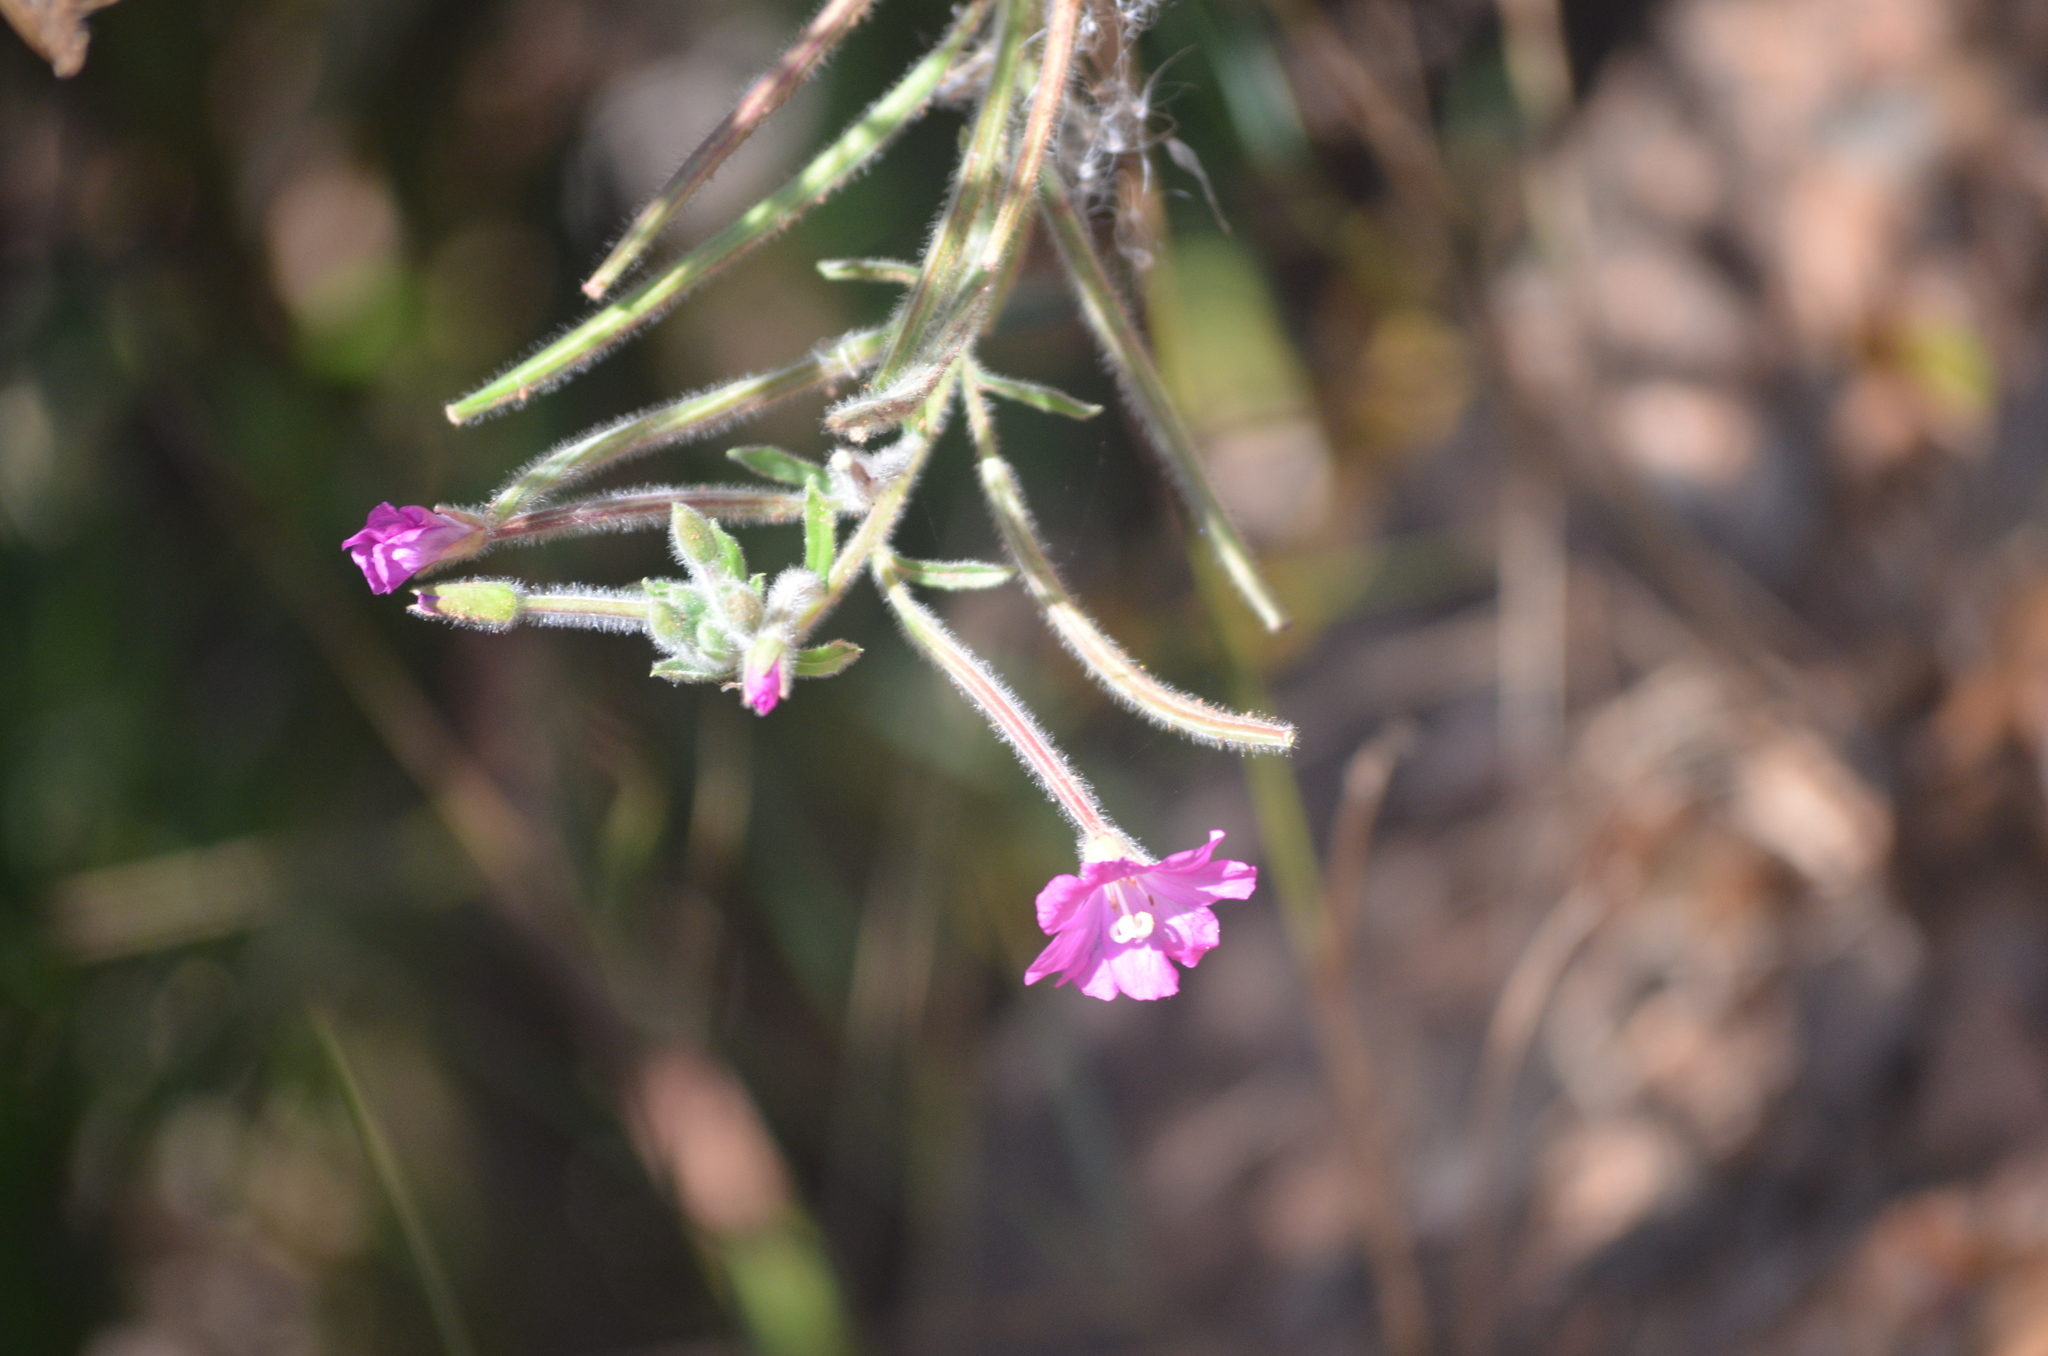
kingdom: Plantae
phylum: Tracheophyta
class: Magnoliopsida
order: Myrtales
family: Onagraceae
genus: Epilobium
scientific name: Epilobium hirsutum
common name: Great willowherb
